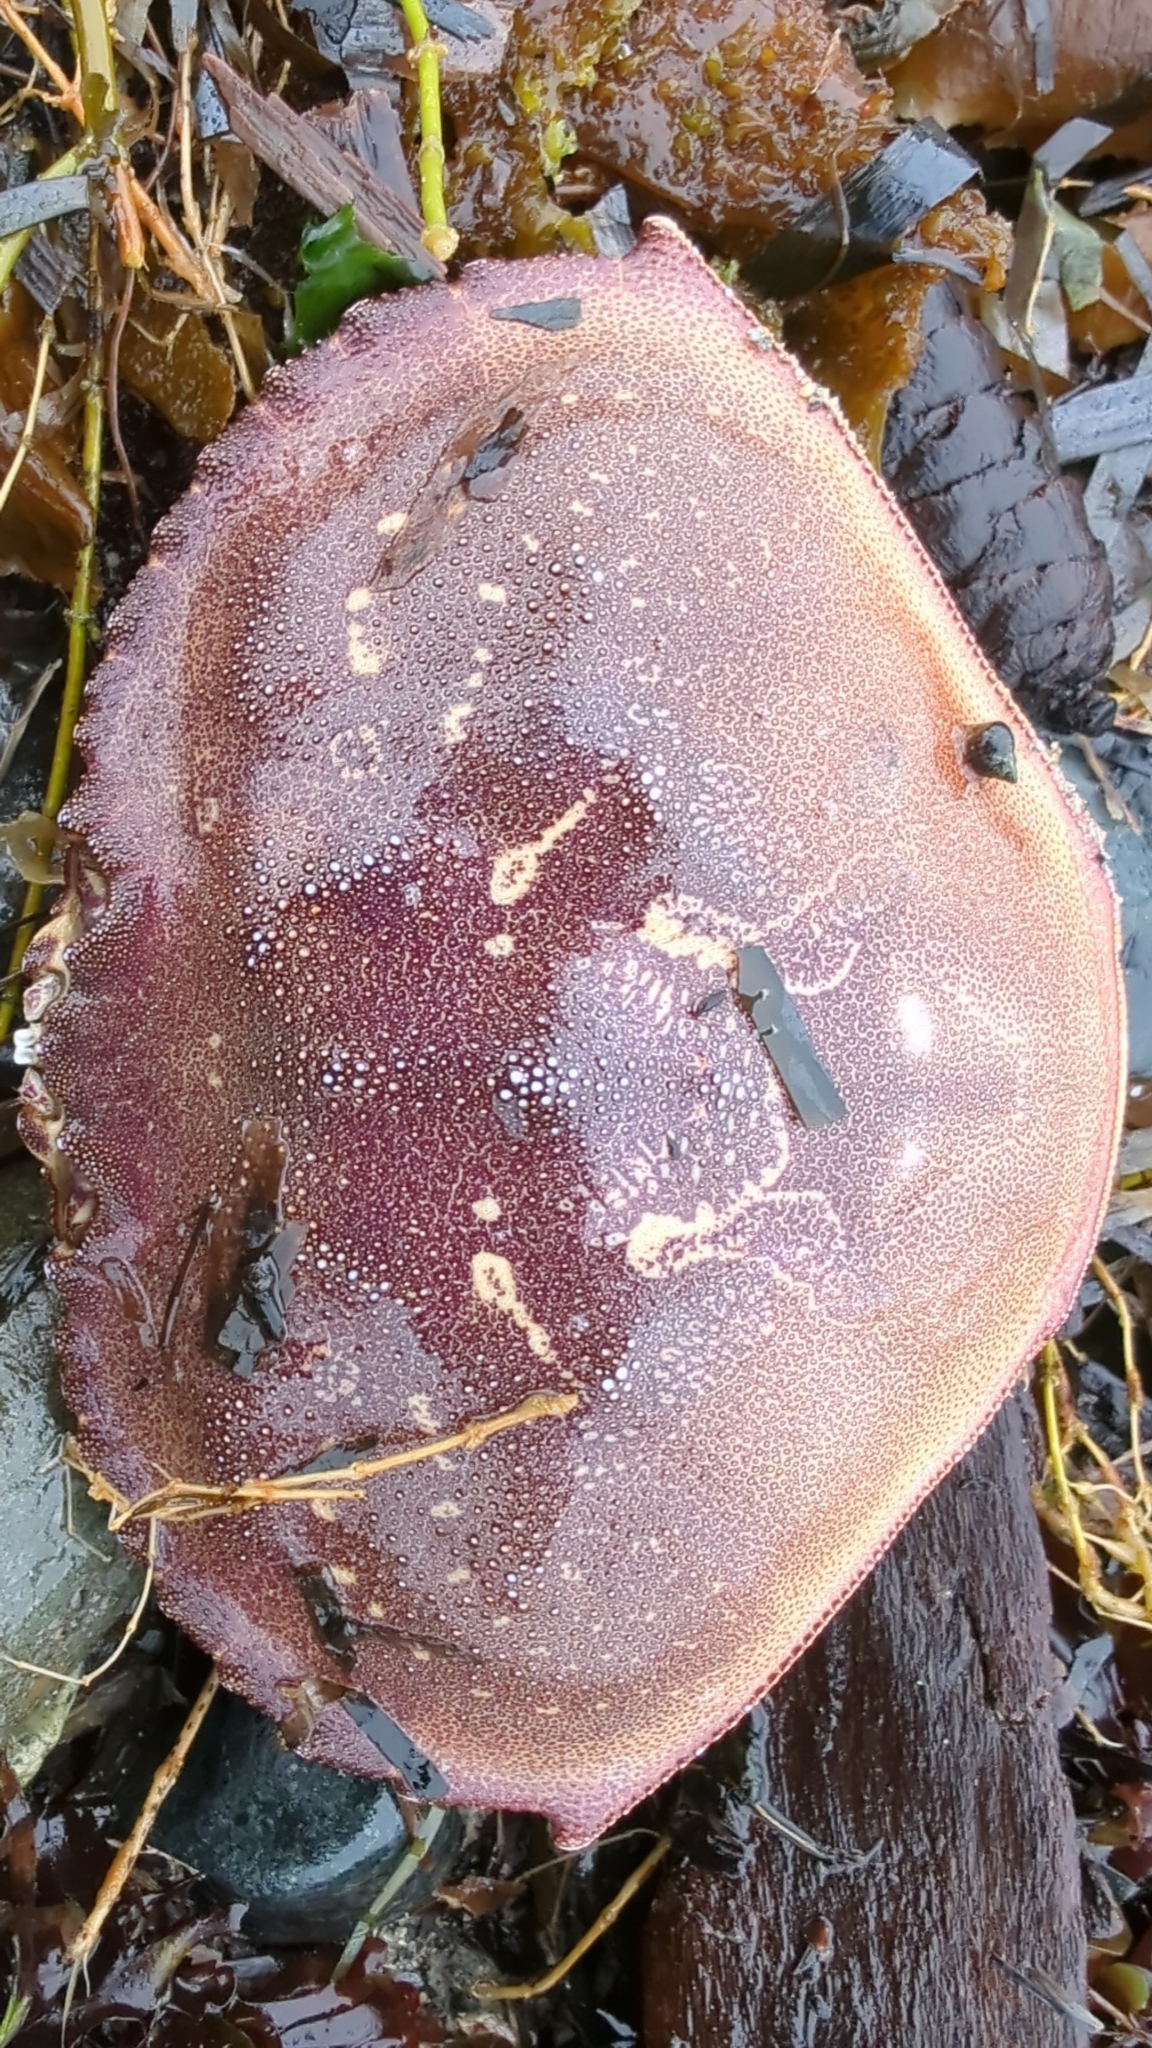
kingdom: Animalia
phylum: Arthropoda
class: Malacostraca
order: Decapoda
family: Cancridae
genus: Metacarcinus
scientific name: Metacarcinus magister
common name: Californian crab
